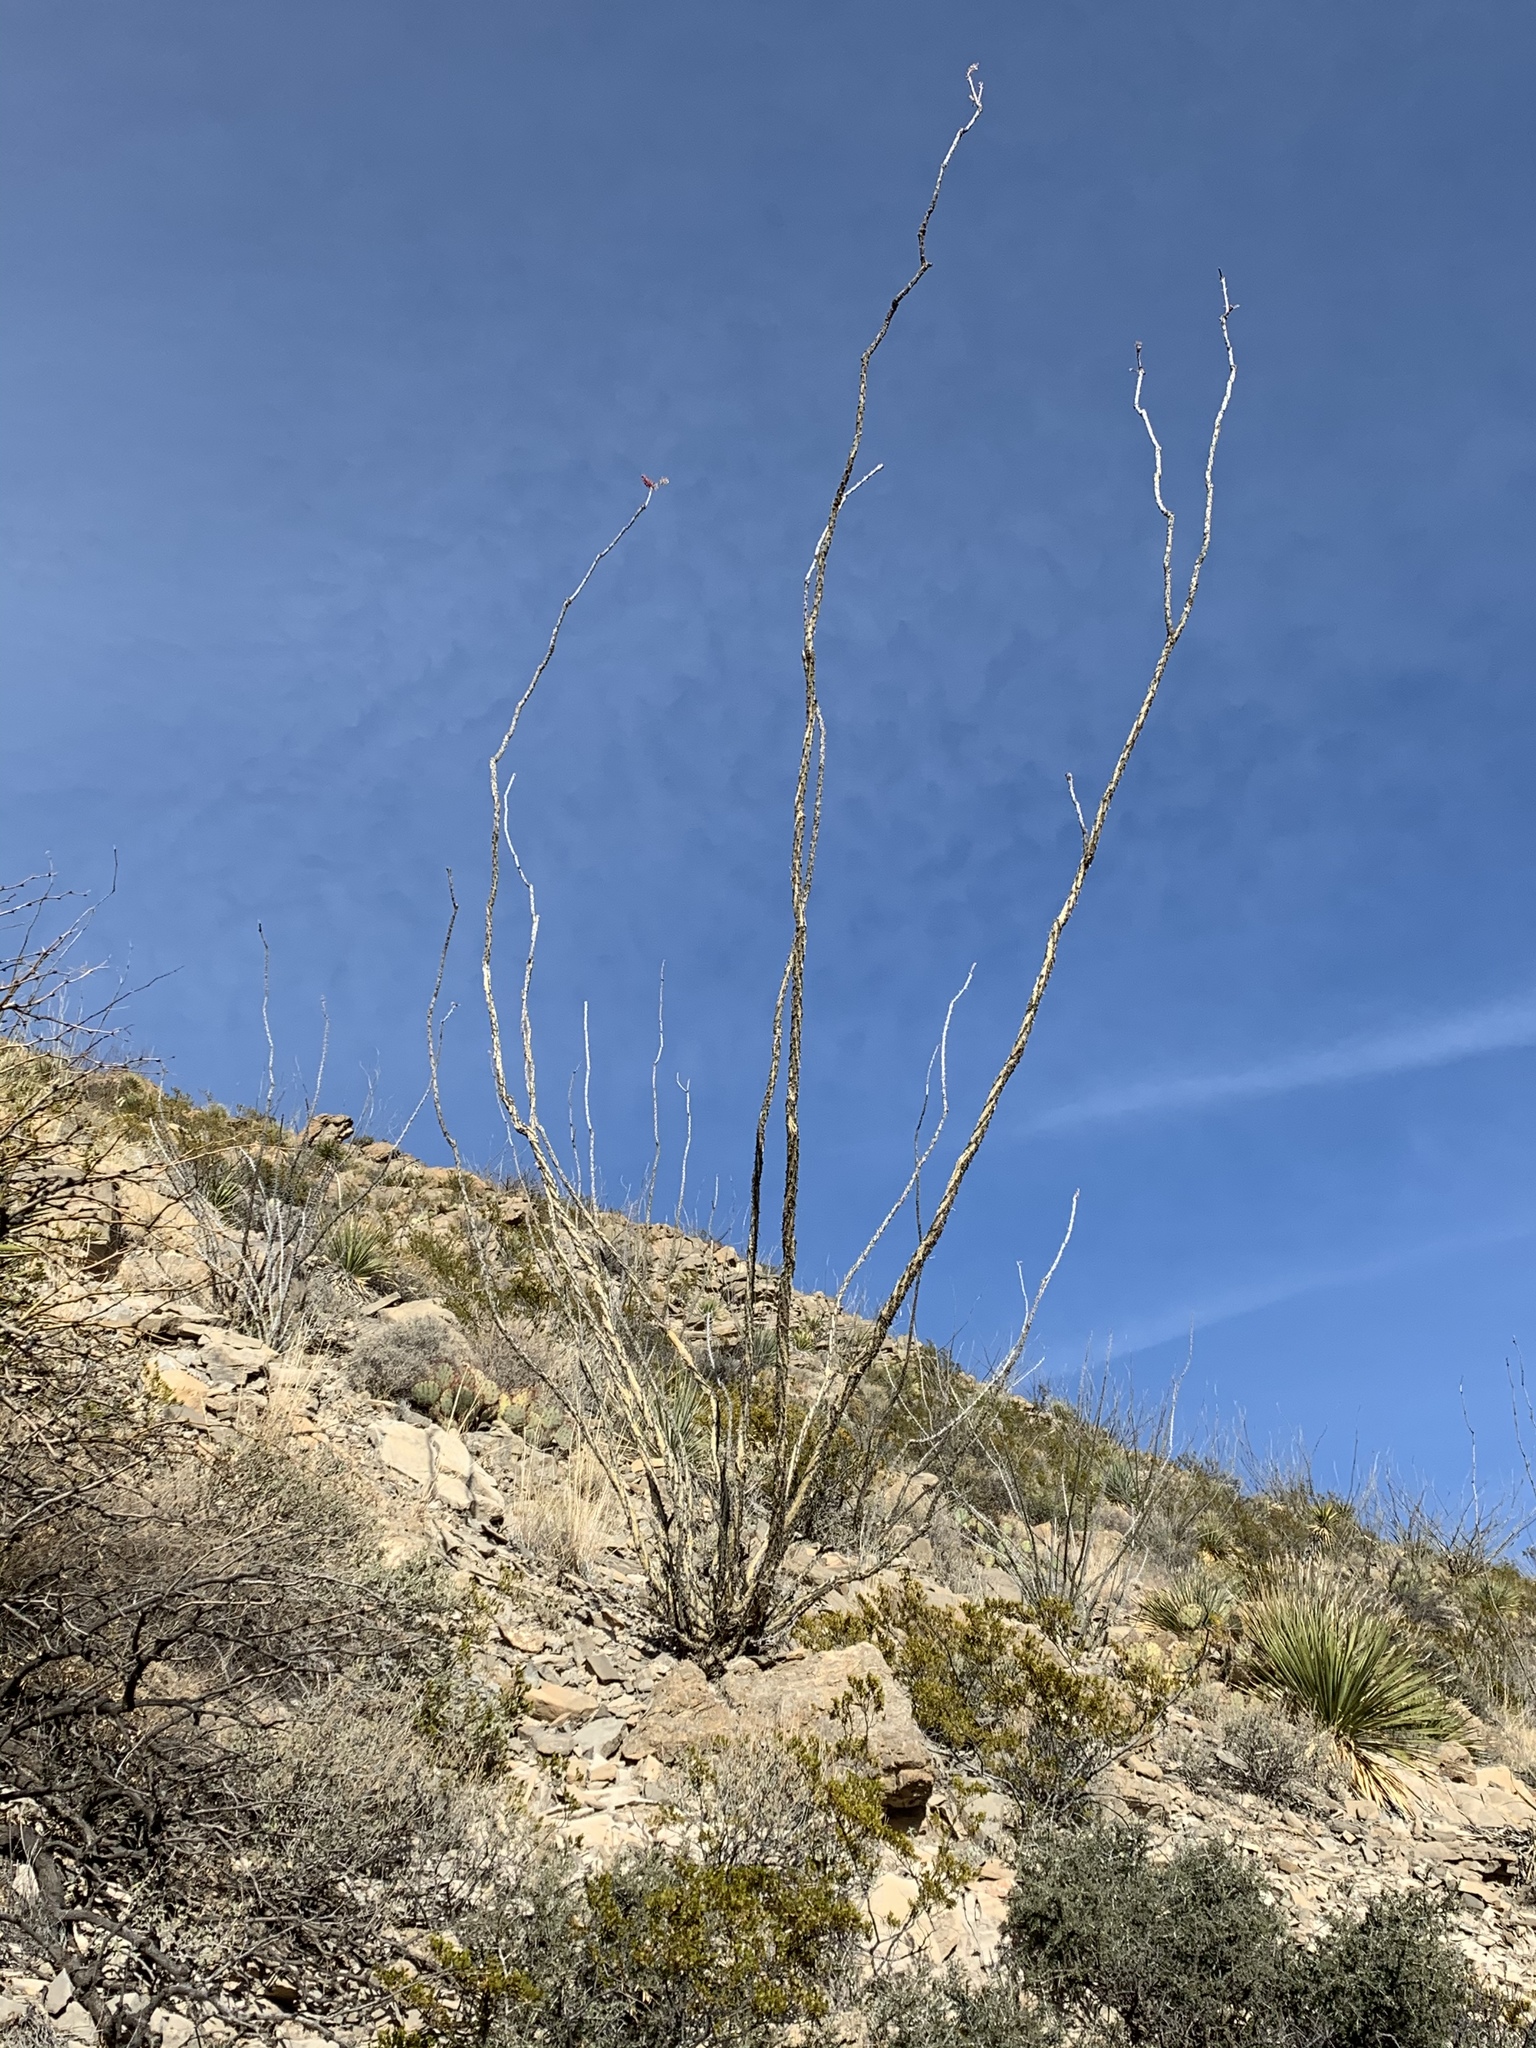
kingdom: Plantae
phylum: Tracheophyta
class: Magnoliopsida
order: Ericales
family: Fouquieriaceae
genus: Fouquieria
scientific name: Fouquieria splendens
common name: Vine-cactus
